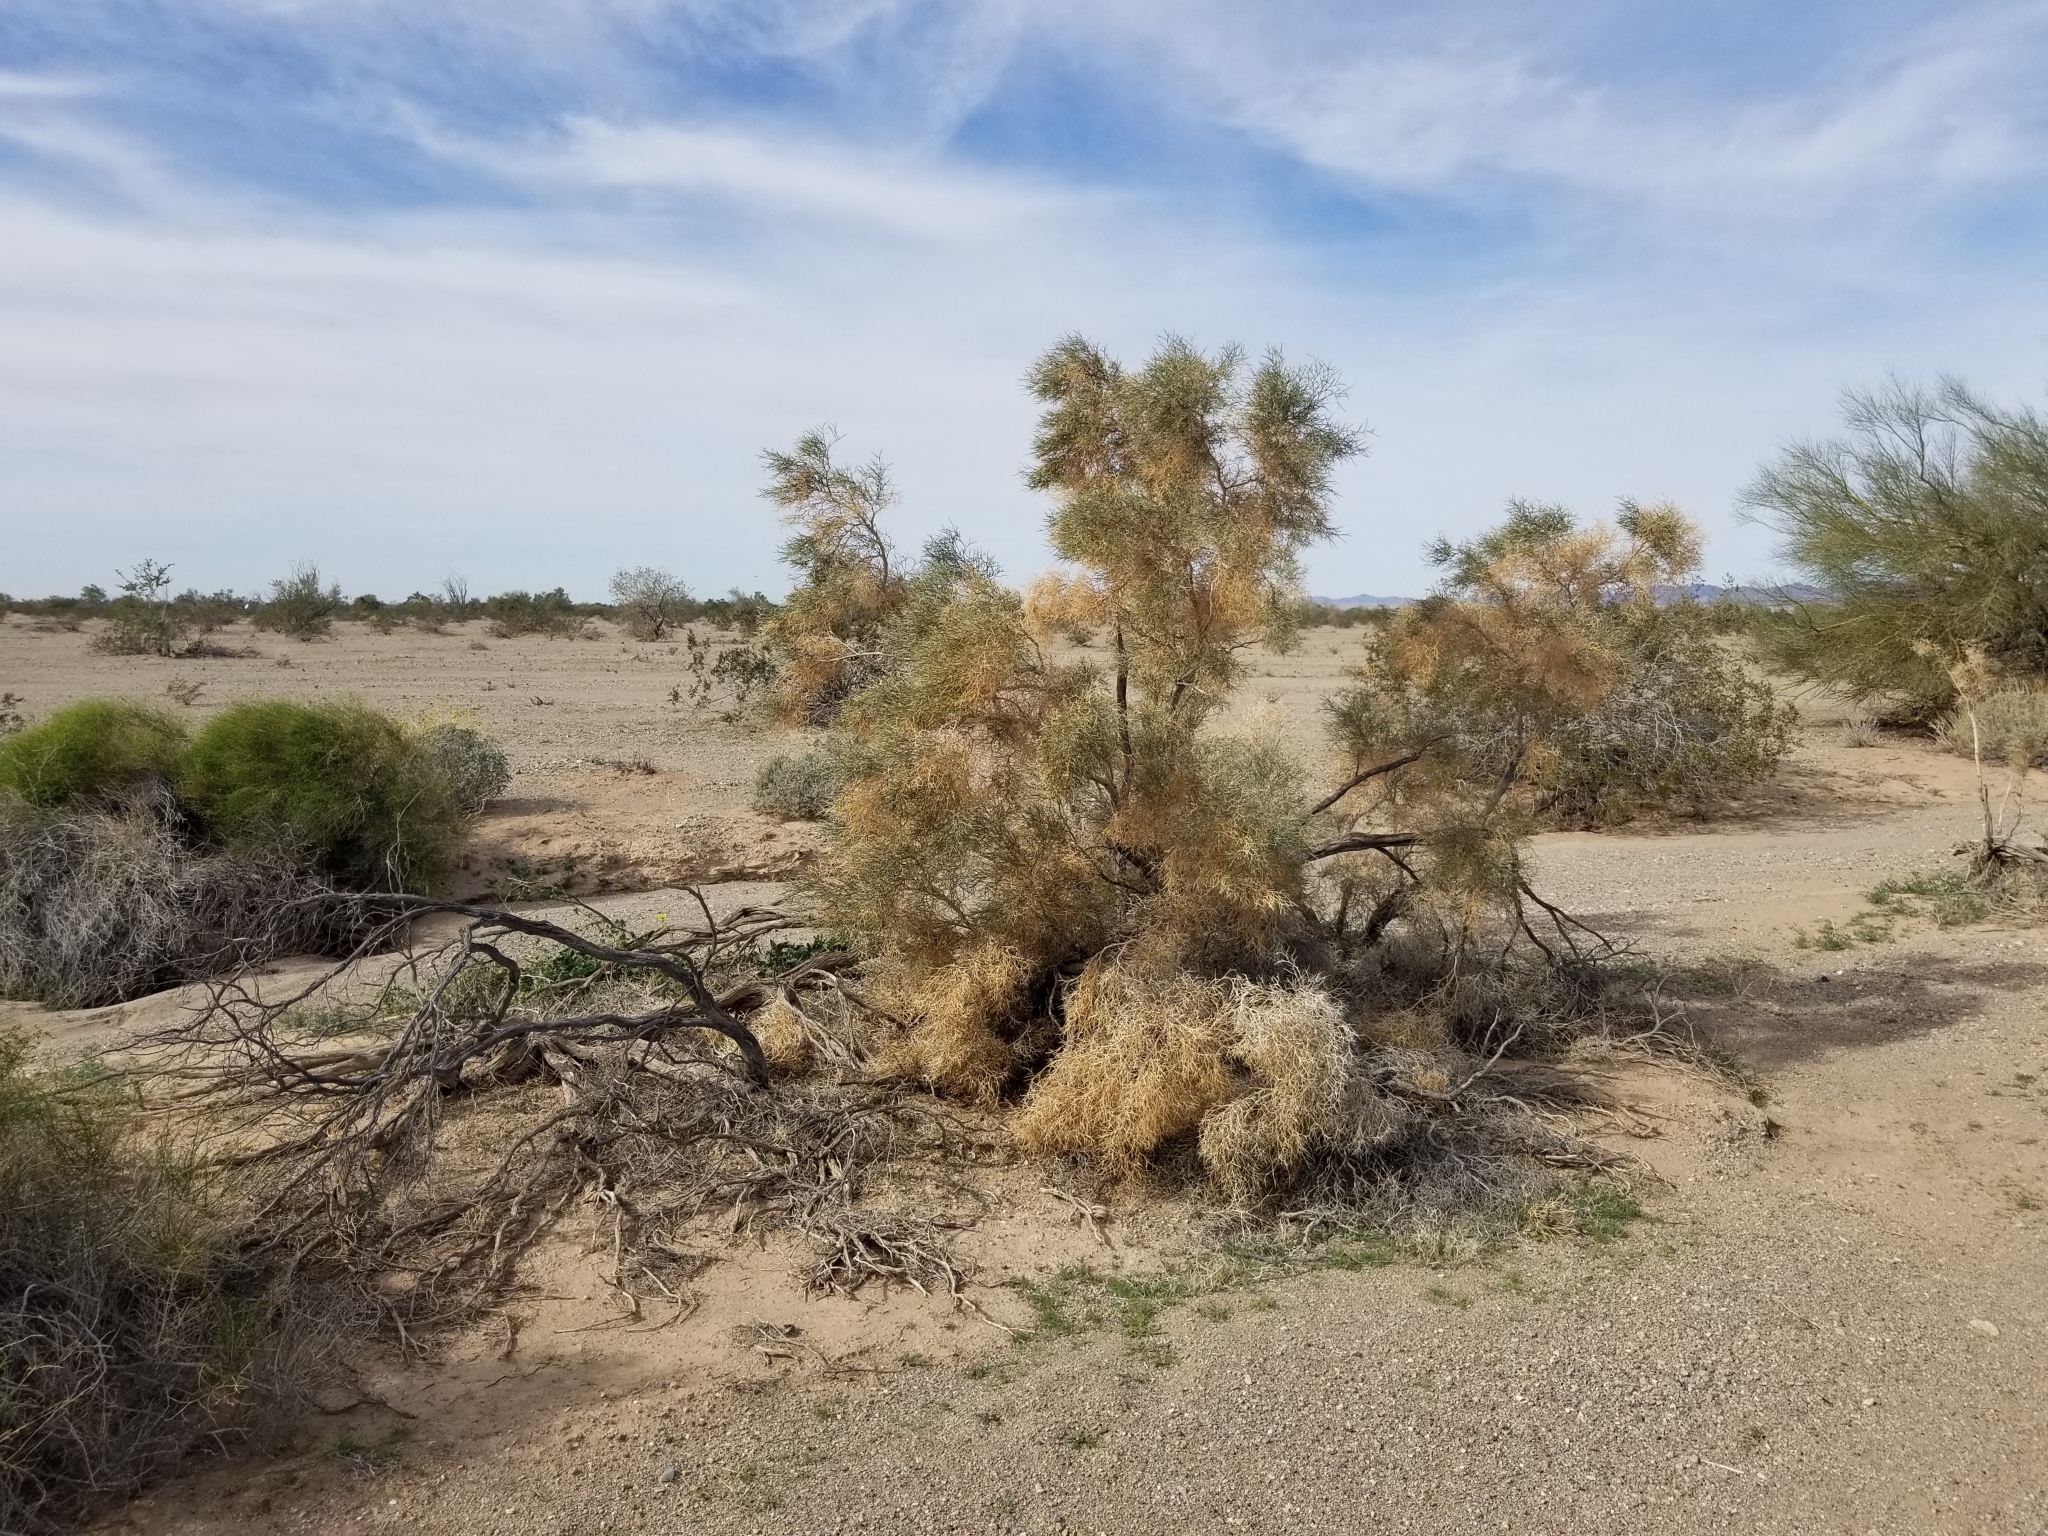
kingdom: Plantae
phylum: Tracheophyta
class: Magnoliopsida
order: Fabales
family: Fabaceae
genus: Psorothamnus
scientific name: Psorothamnus spinosus
